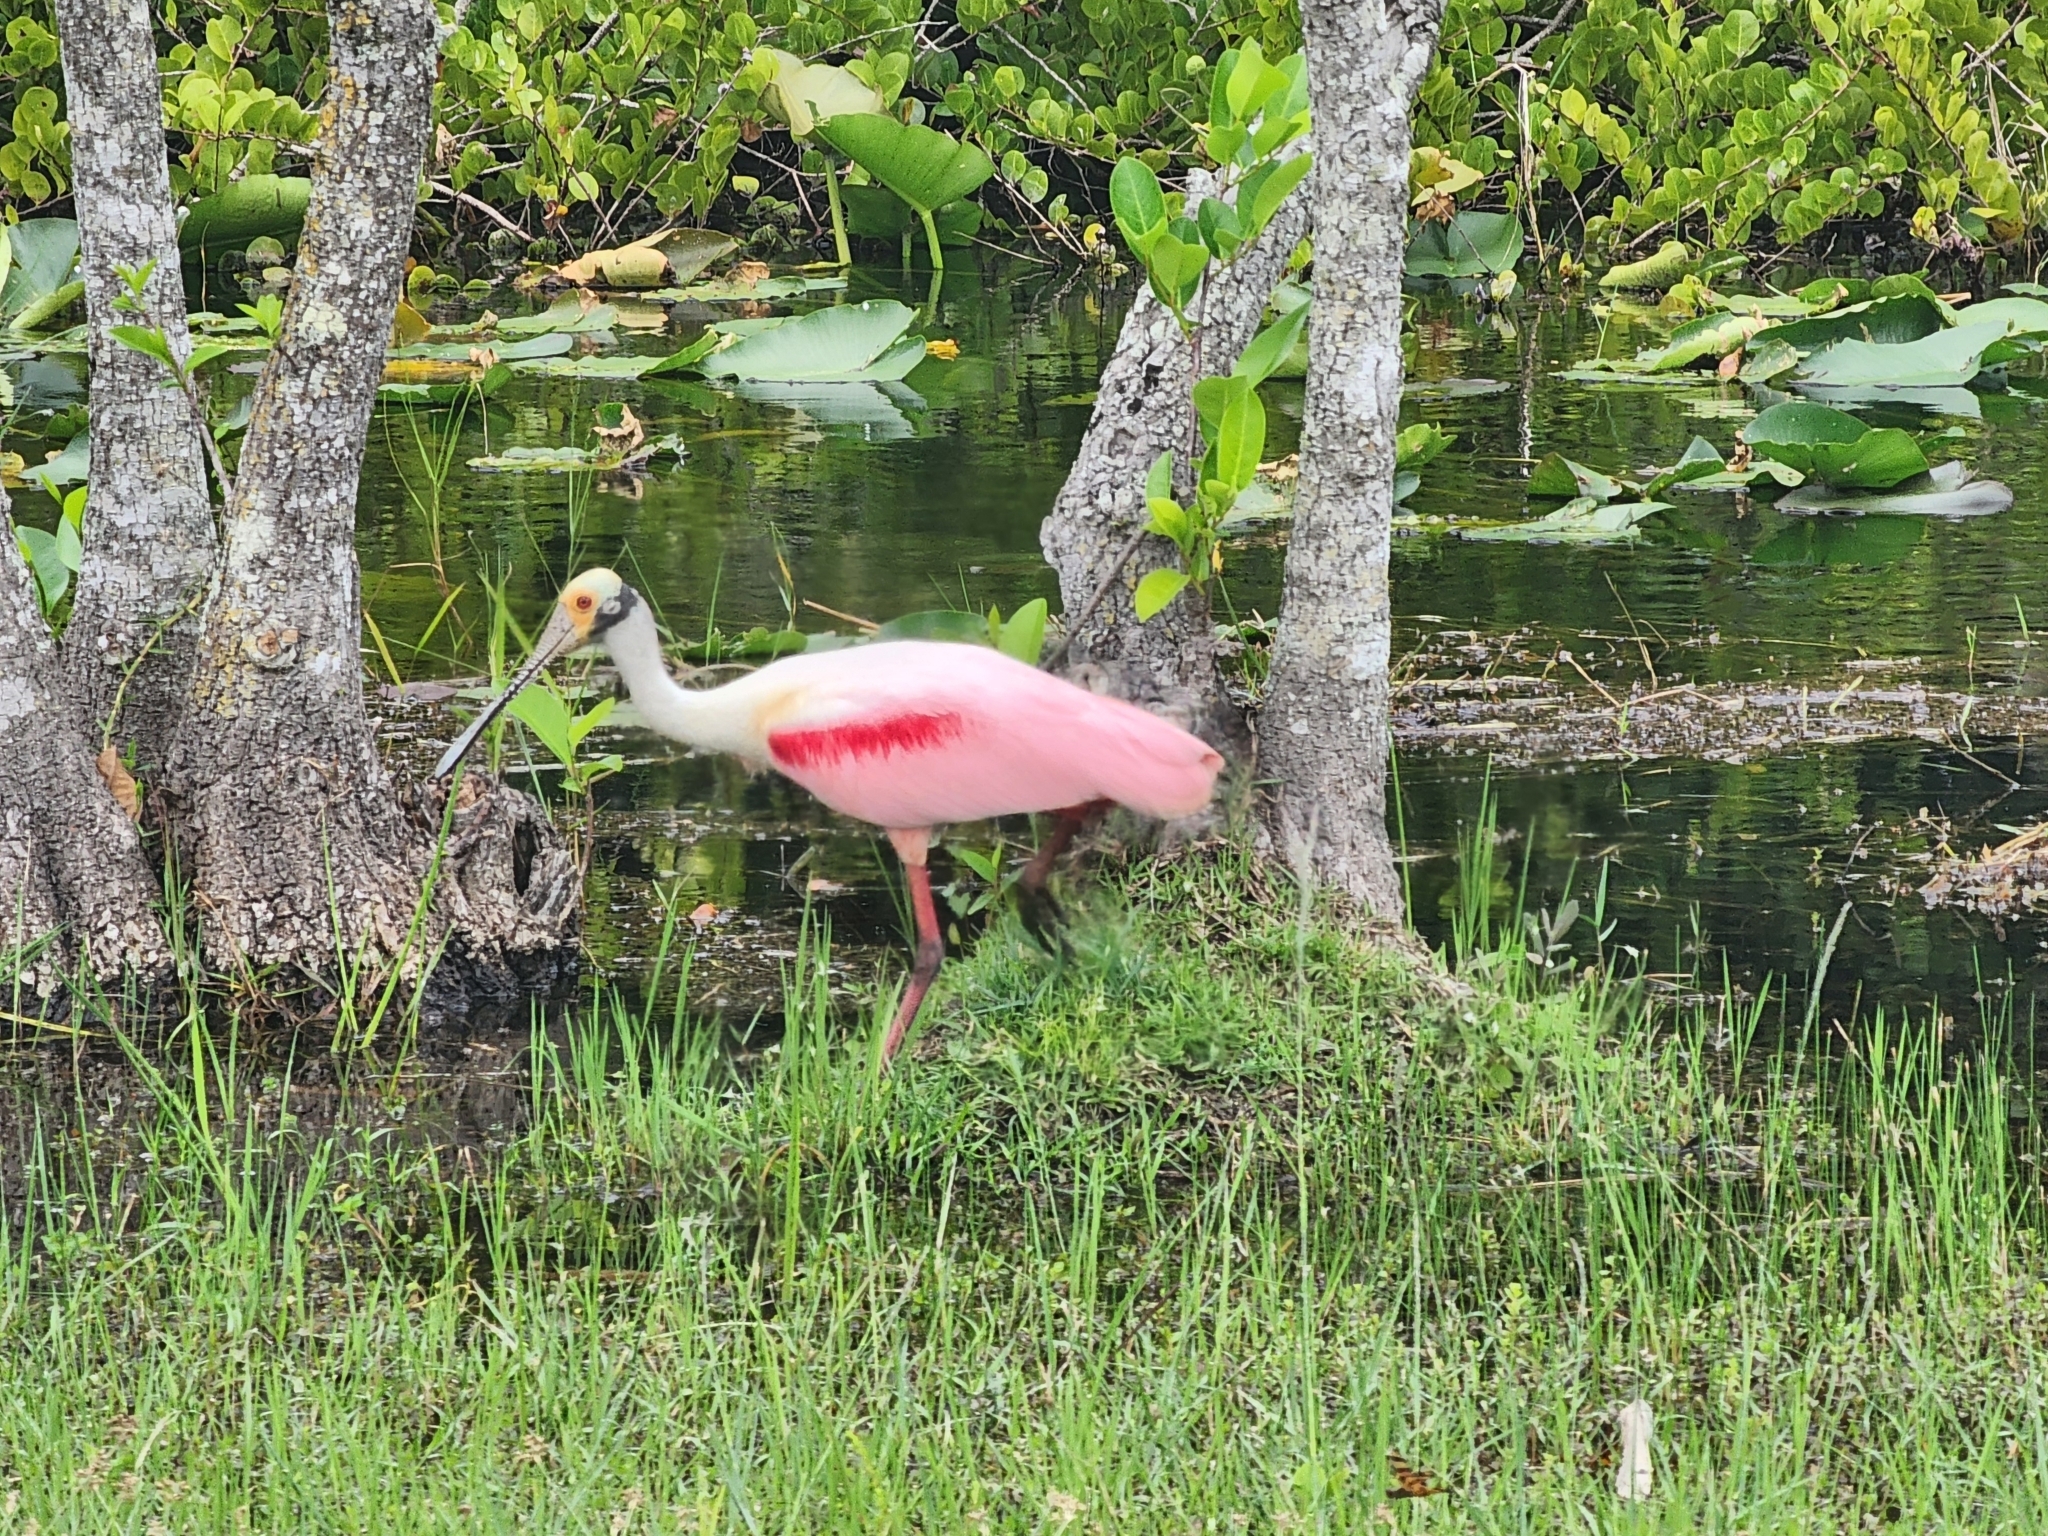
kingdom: Animalia
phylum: Chordata
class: Aves
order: Pelecaniformes
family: Threskiornithidae
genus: Platalea
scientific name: Platalea ajaja
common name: Roseate spoonbill
